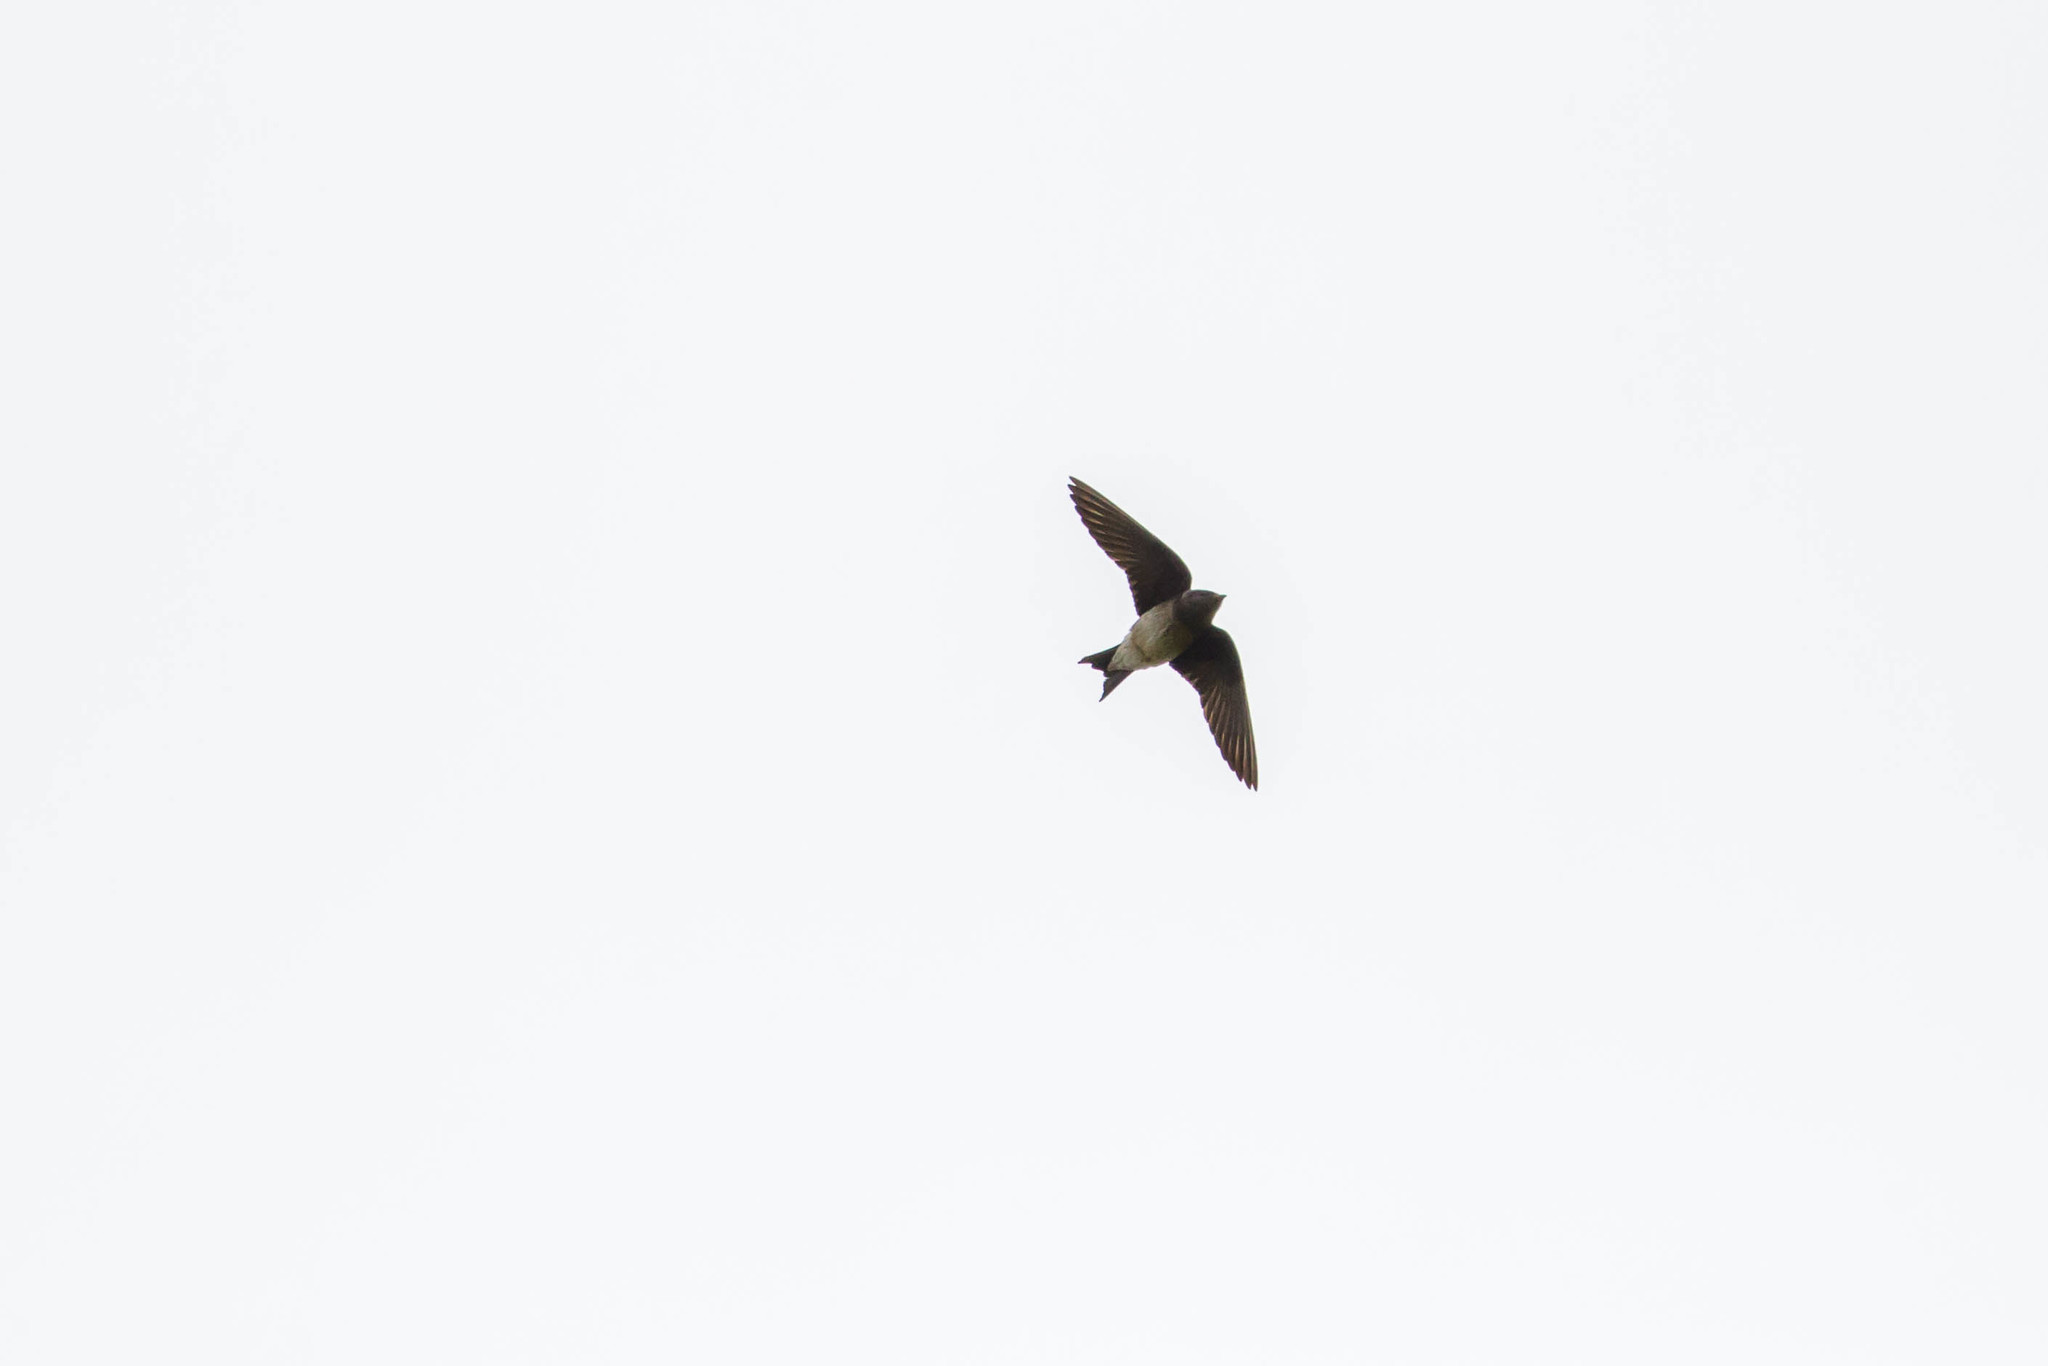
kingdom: Animalia
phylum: Chordata
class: Aves
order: Passeriformes
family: Hirundinidae
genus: Progne
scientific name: Progne subis
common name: Purple martin
